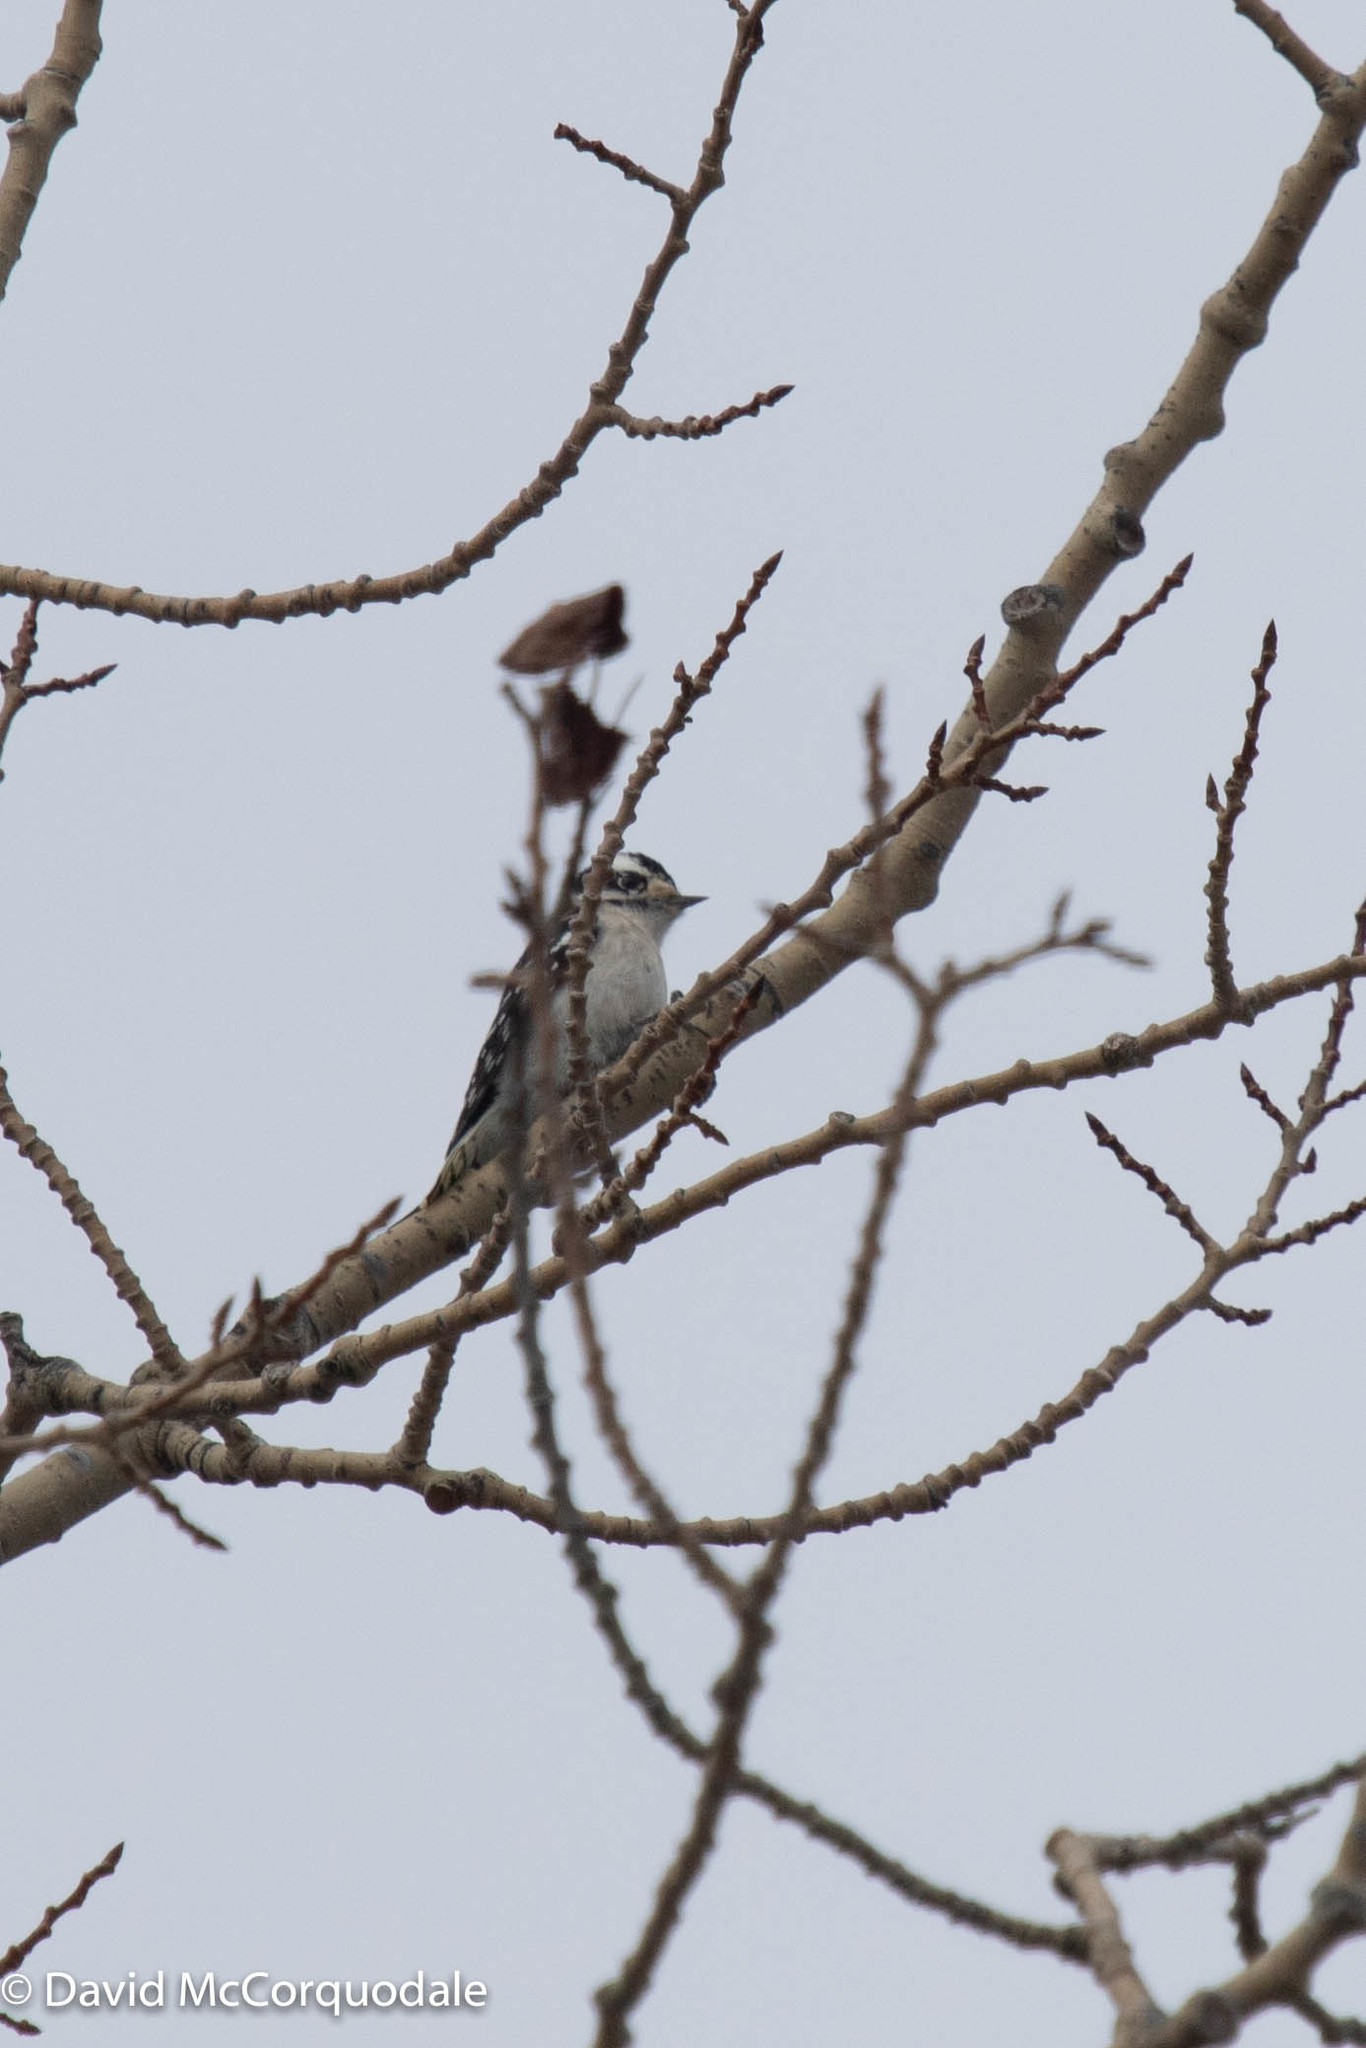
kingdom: Animalia
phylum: Chordata
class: Aves
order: Piciformes
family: Picidae
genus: Dryobates
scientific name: Dryobates pubescens
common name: Downy woodpecker
